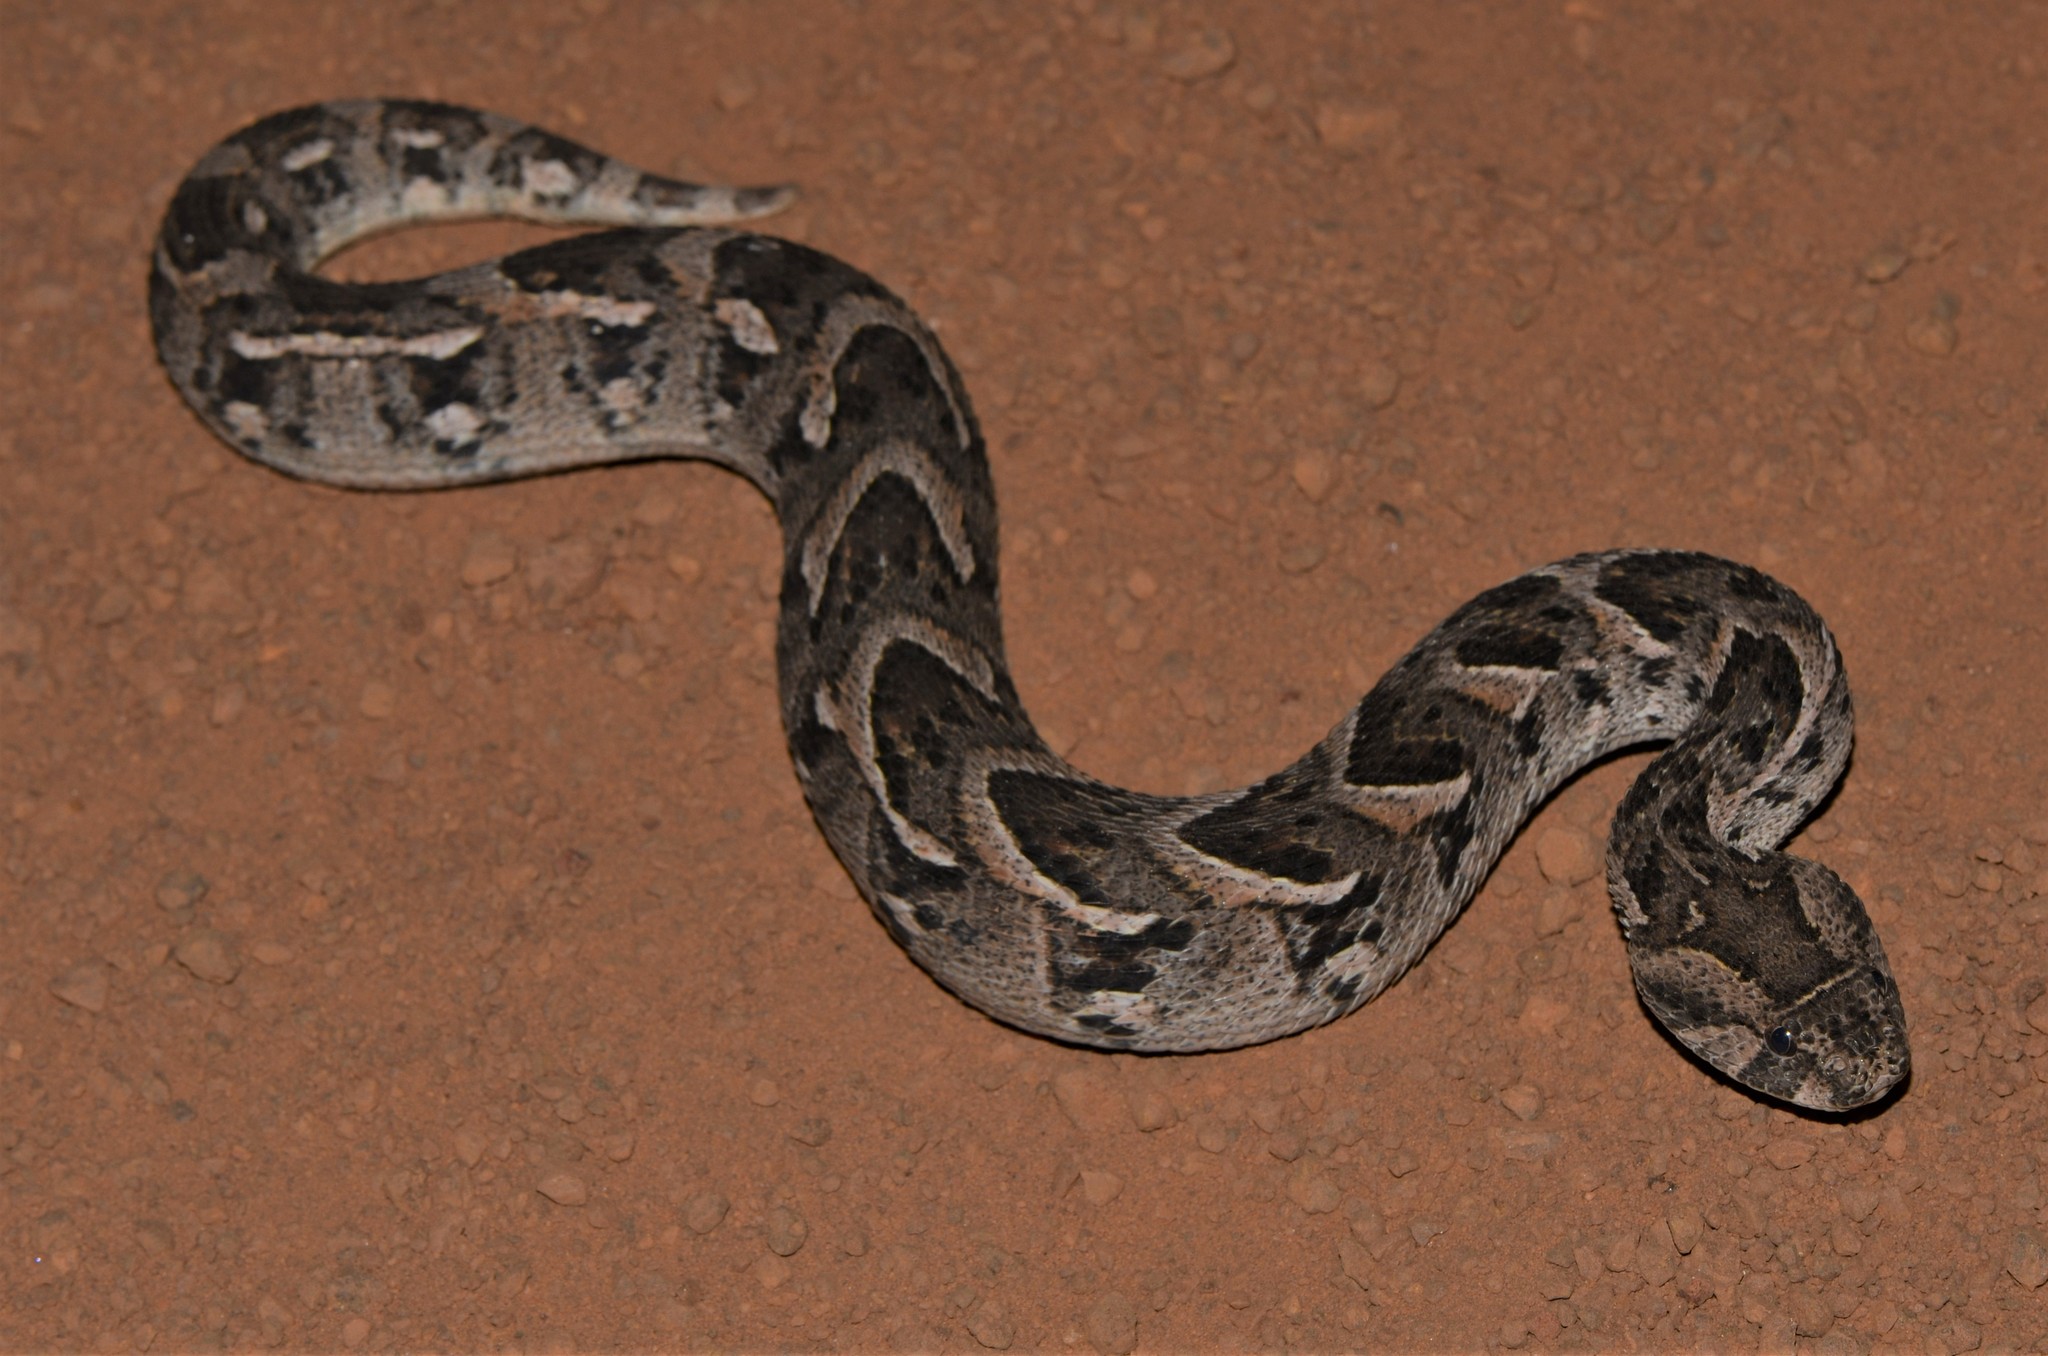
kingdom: Animalia
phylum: Chordata
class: Squamata
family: Viperidae
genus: Bitis
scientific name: Bitis arietans
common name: Puff adder
